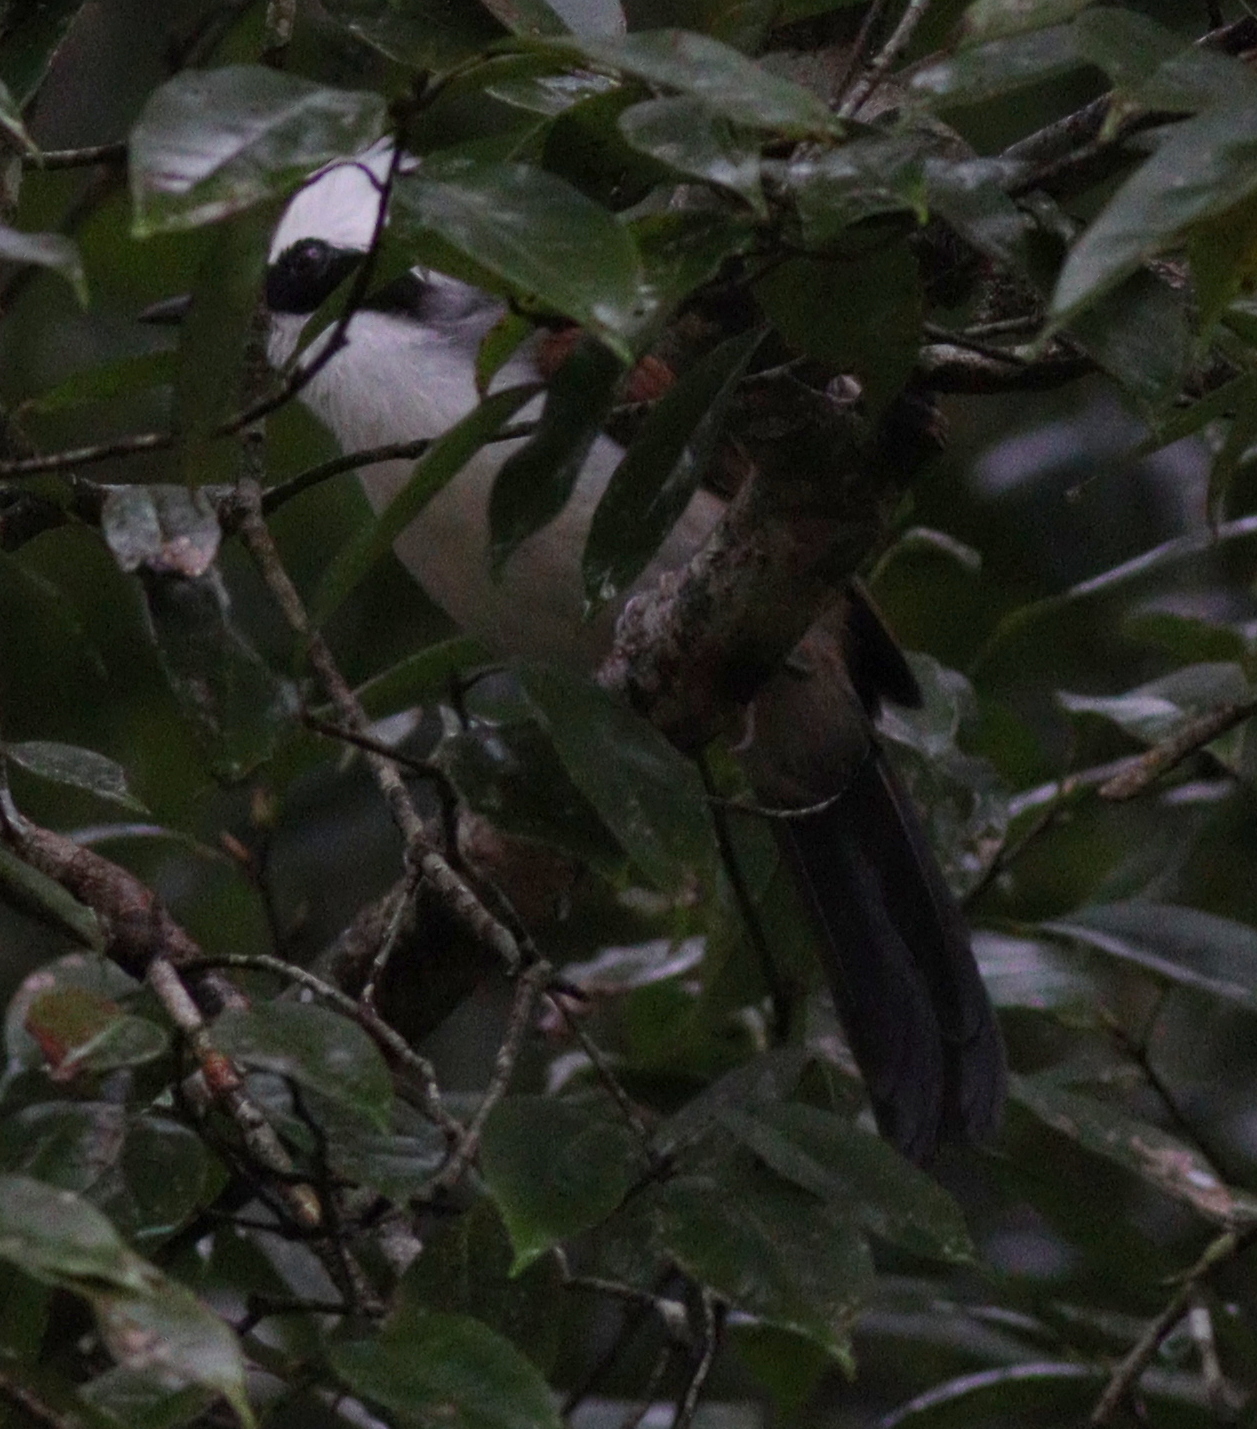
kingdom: Animalia
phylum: Chordata
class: Aves
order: Passeriformes
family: Leiothrichidae
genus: Garrulax
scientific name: Garrulax leucolophus
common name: White-crested laughingthrush
